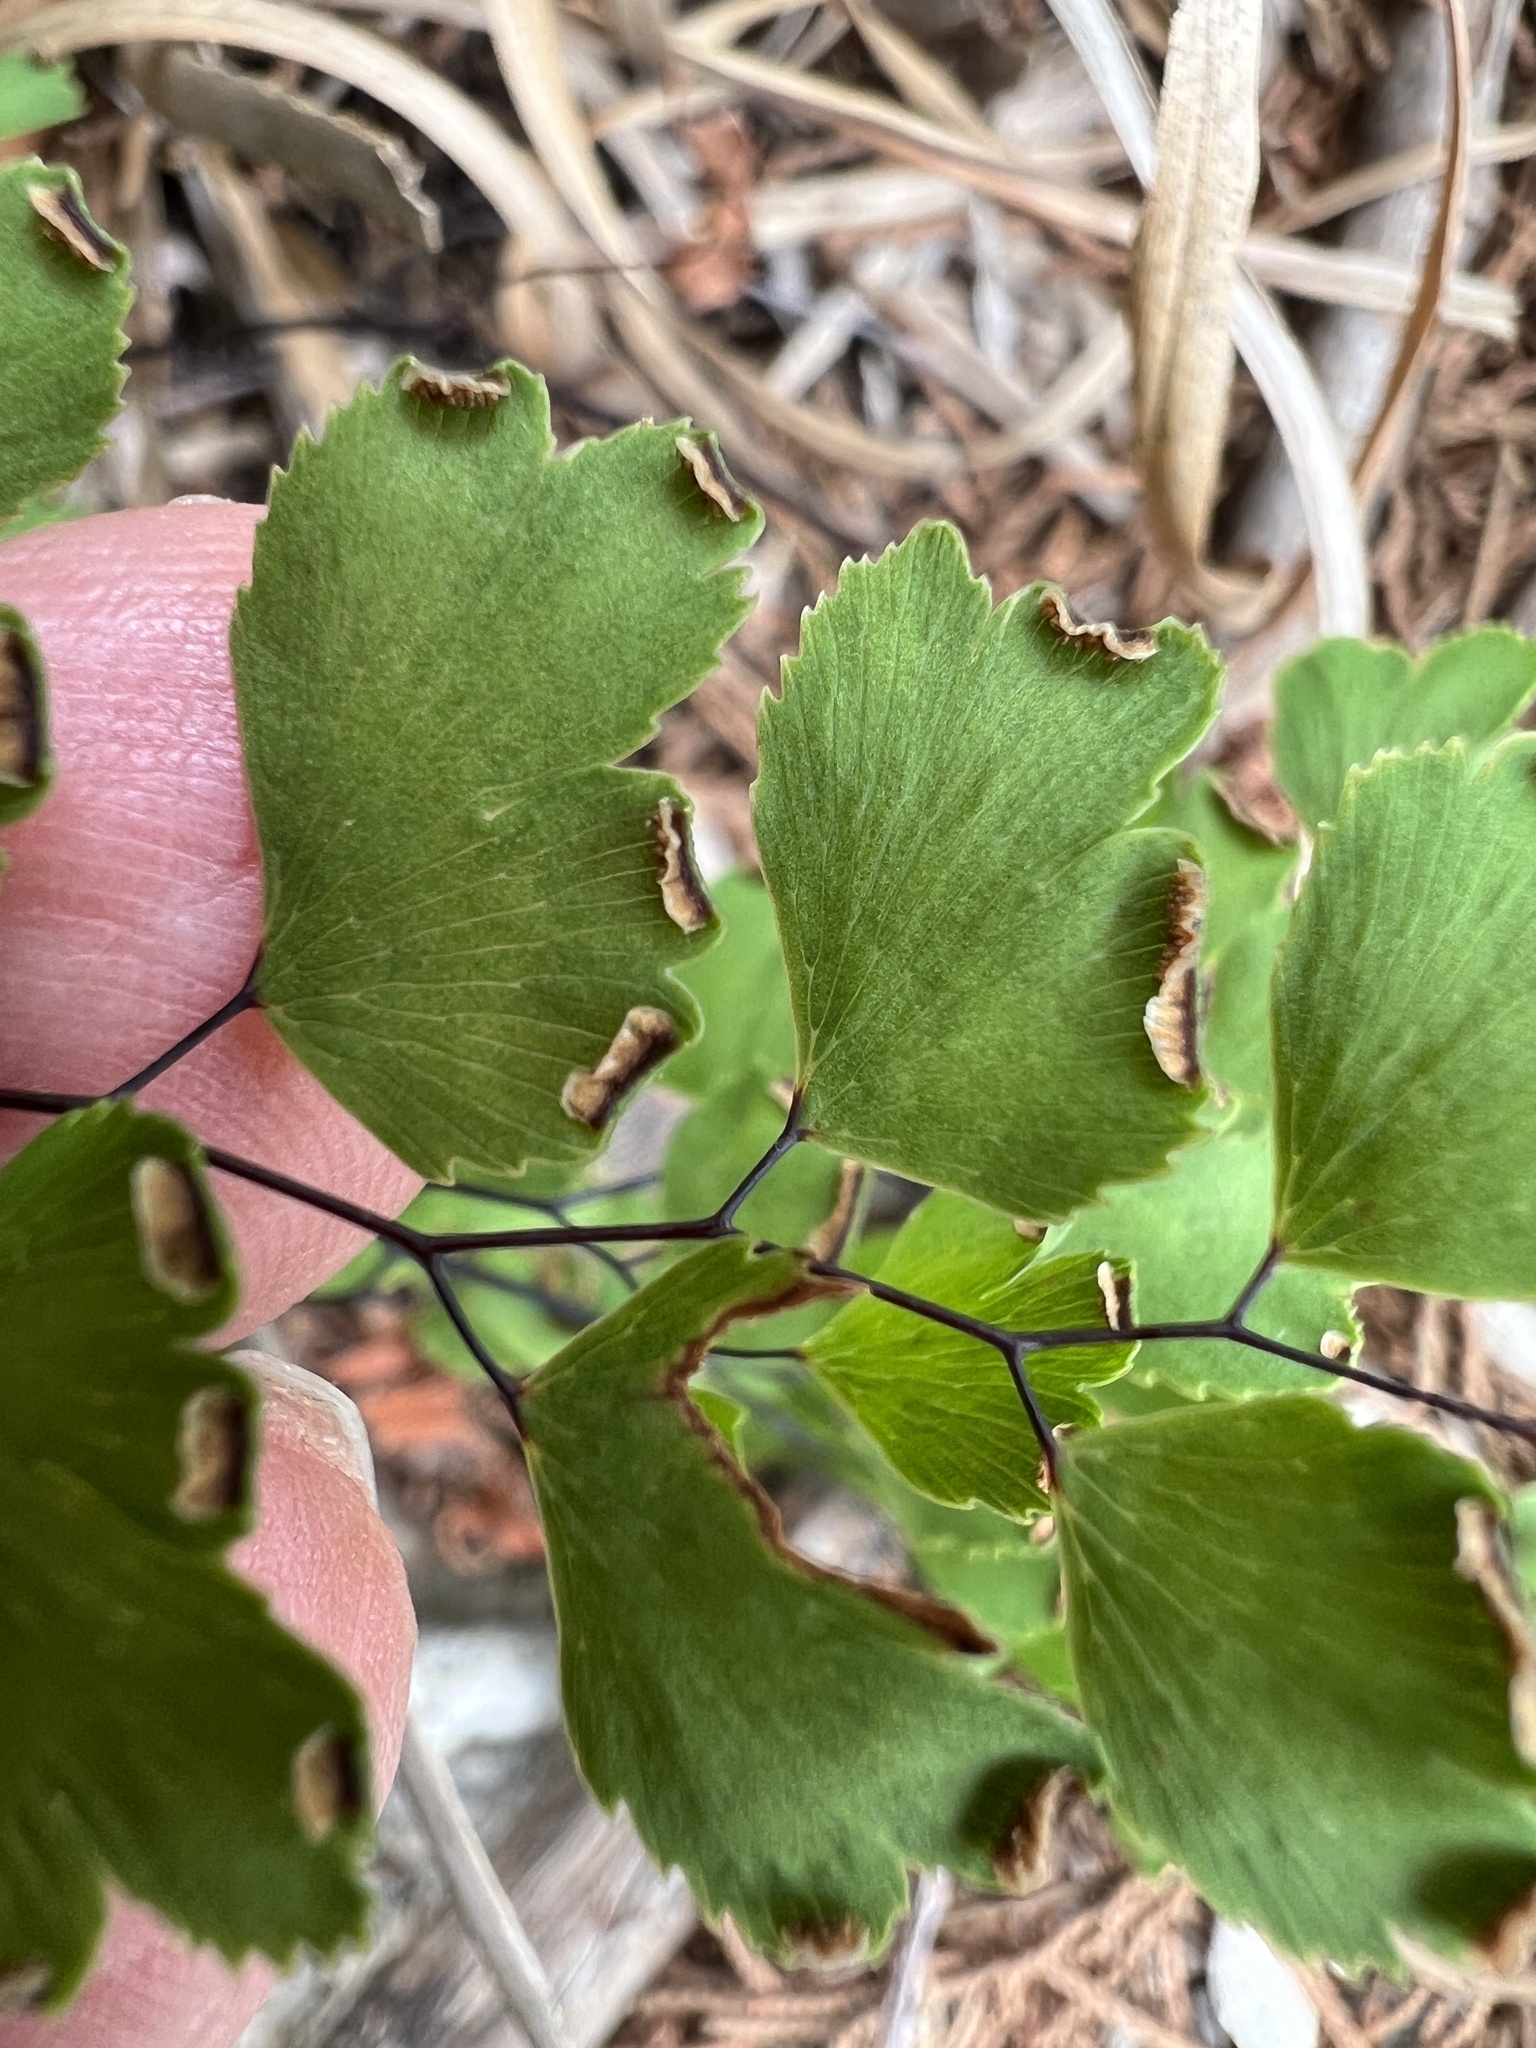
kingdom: Plantae
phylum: Tracheophyta
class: Polypodiopsida
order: Polypodiales
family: Pteridaceae
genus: Adiantum
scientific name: Adiantum capillus-veneris
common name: Maidenhair fern
